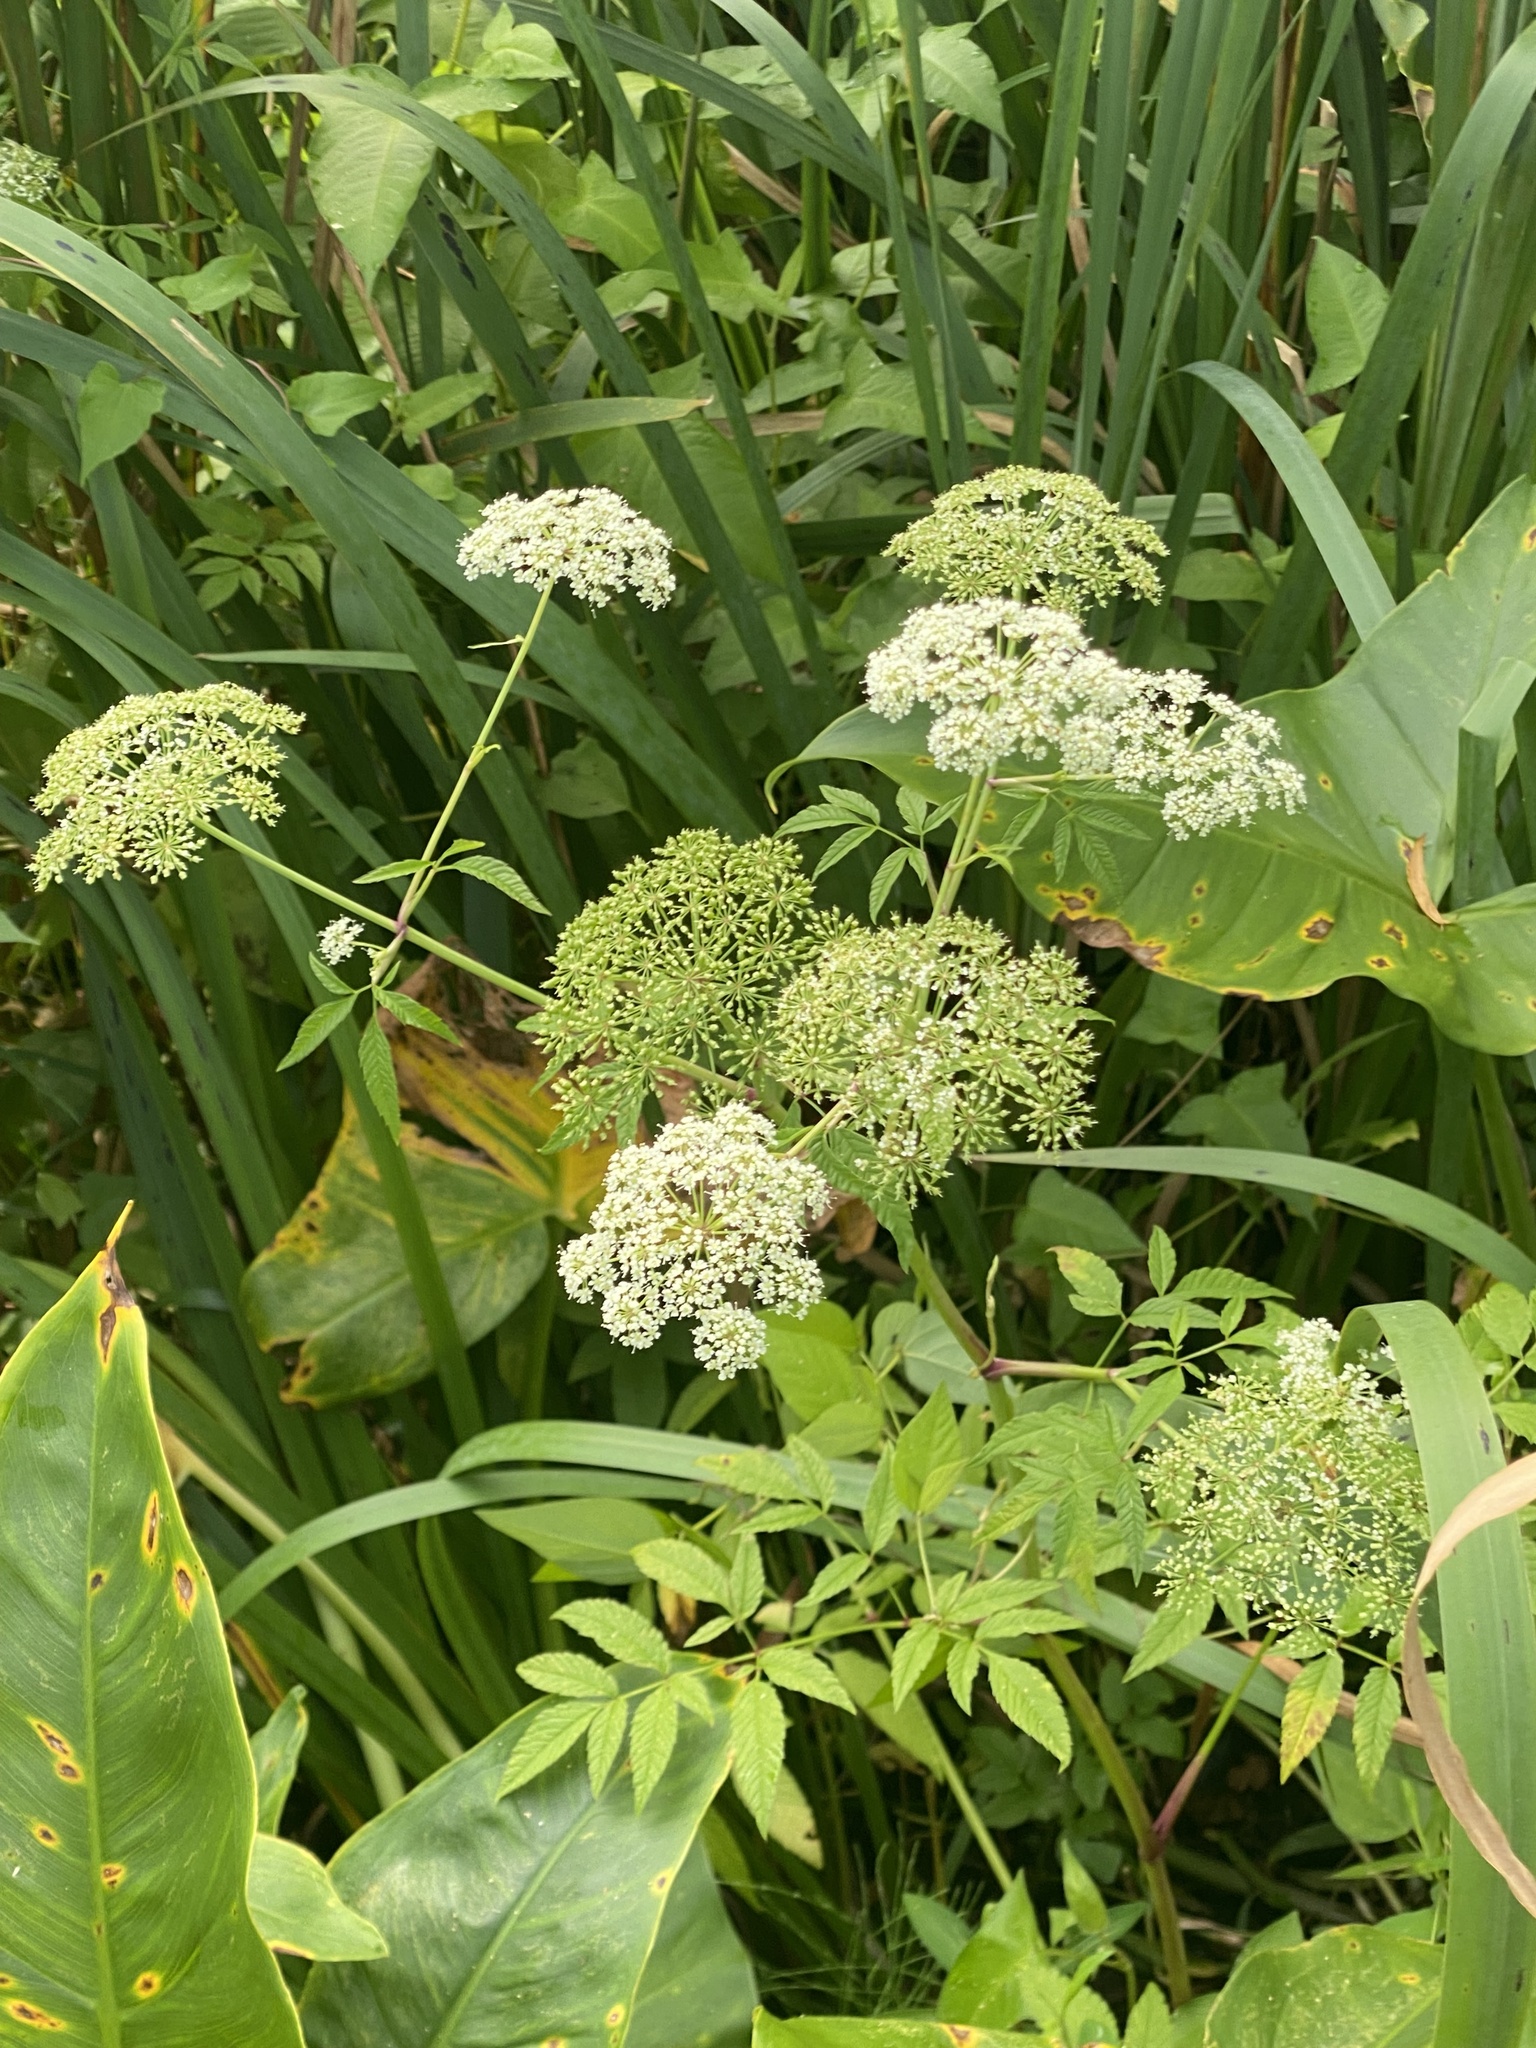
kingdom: Plantae
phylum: Tracheophyta
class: Magnoliopsida
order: Apiales
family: Apiaceae
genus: Cicuta
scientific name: Cicuta maculata
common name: Spotted cowbane
